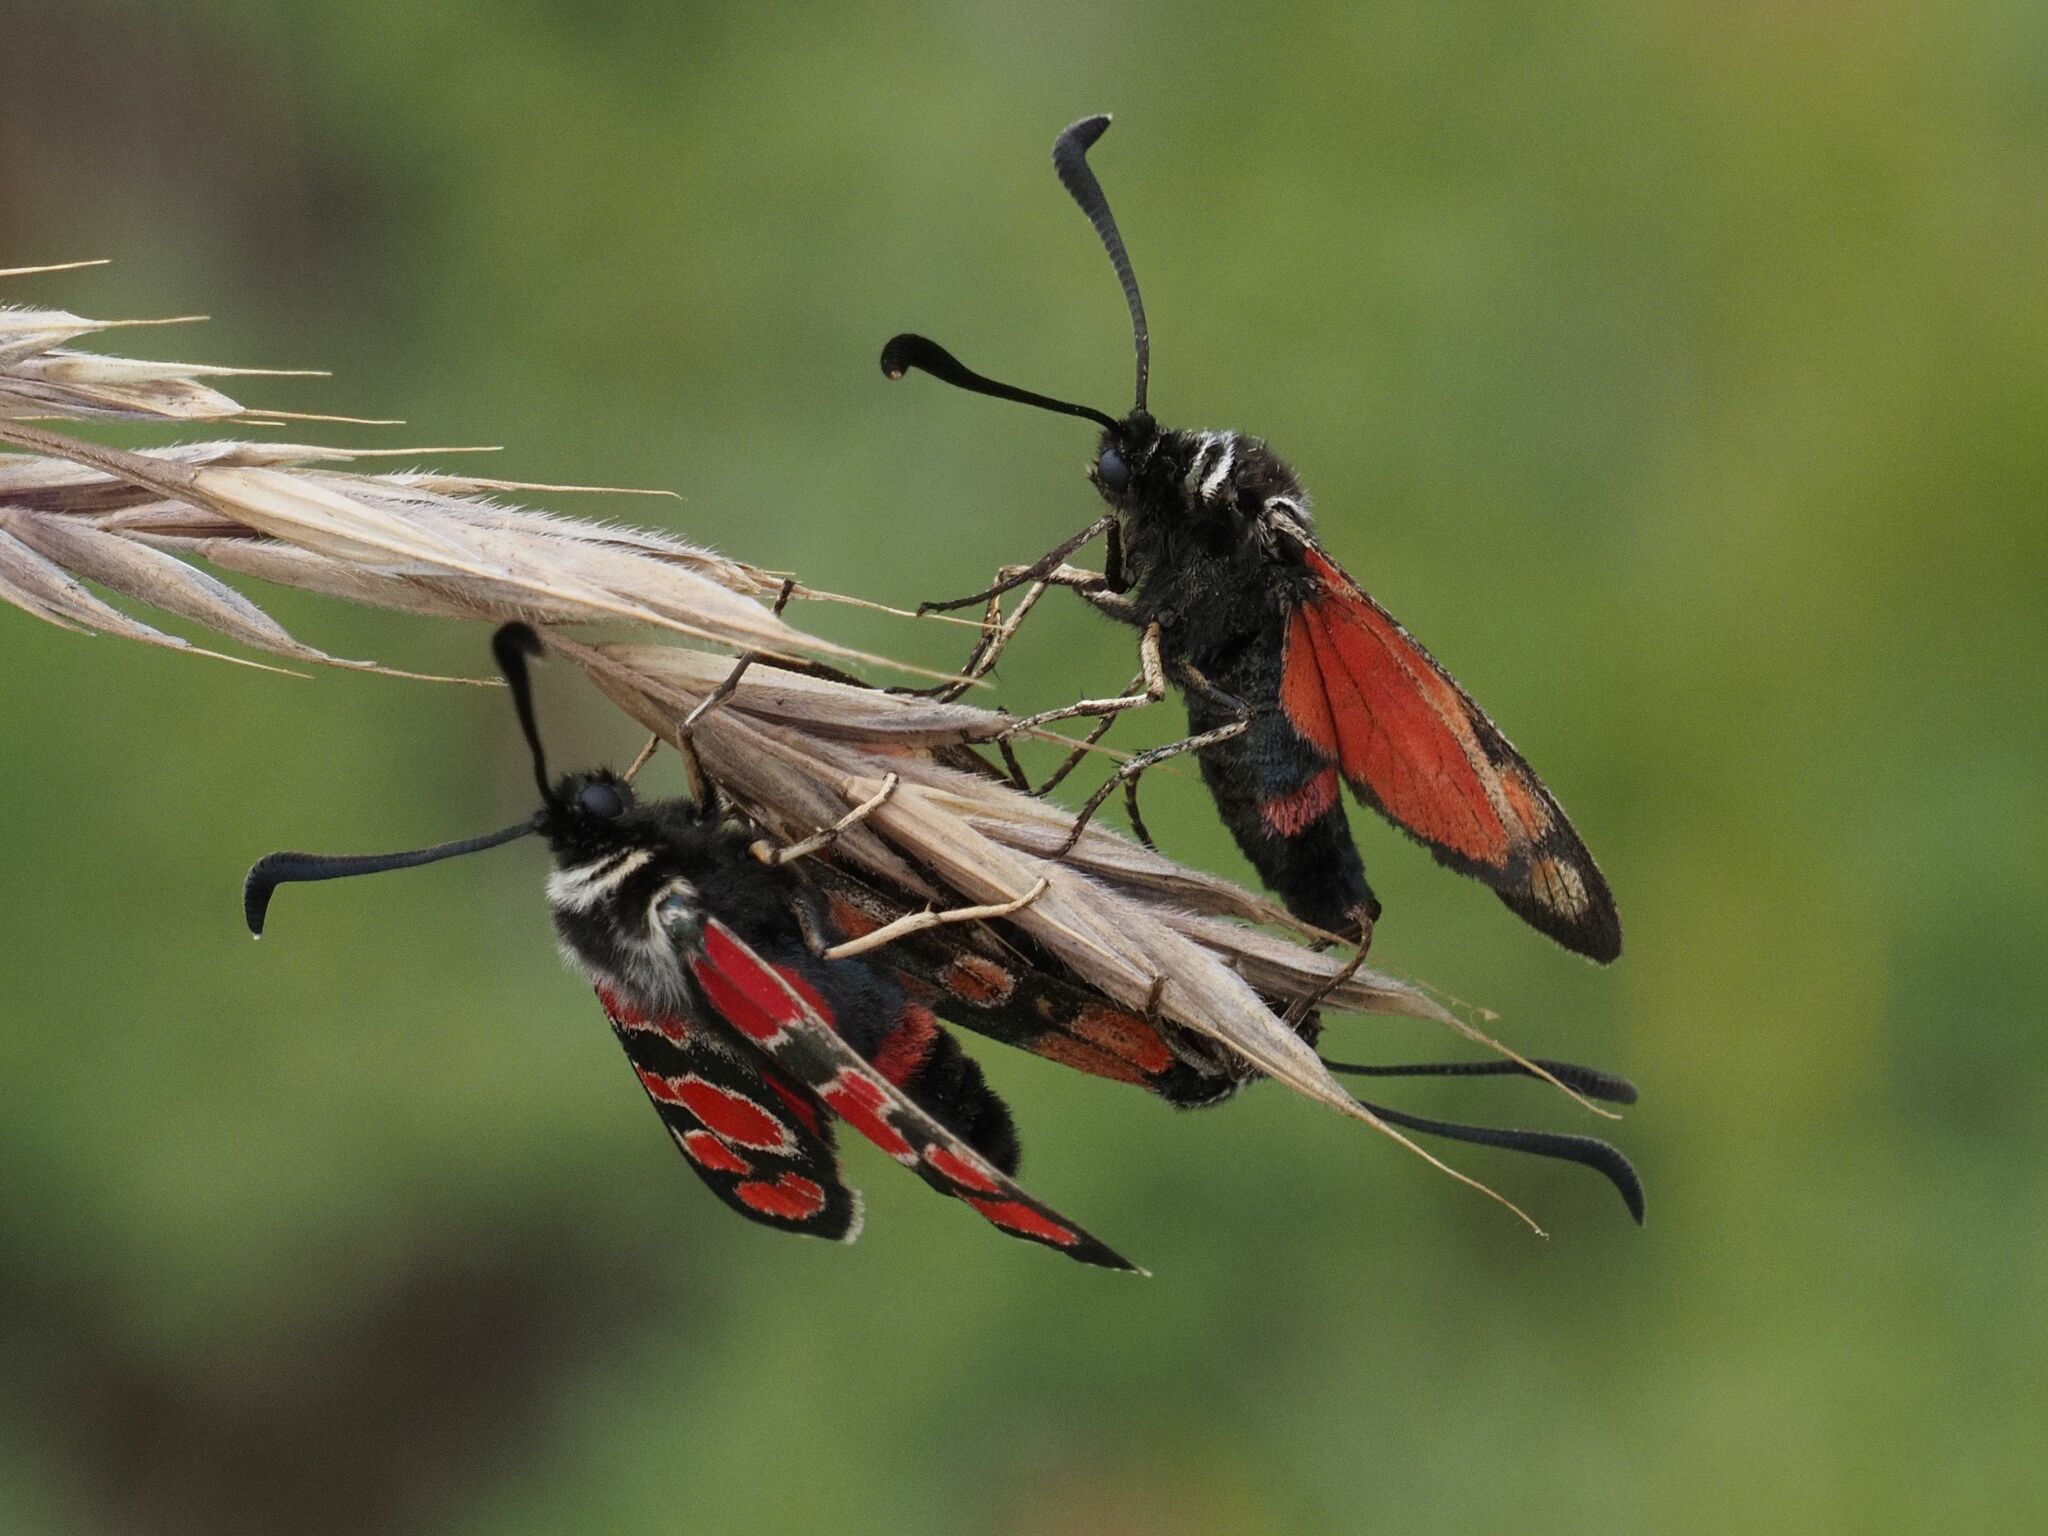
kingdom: Animalia
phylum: Arthropoda
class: Insecta
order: Lepidoptera
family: Zygaenidae
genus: Zygaena
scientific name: Zygaena carniolica
